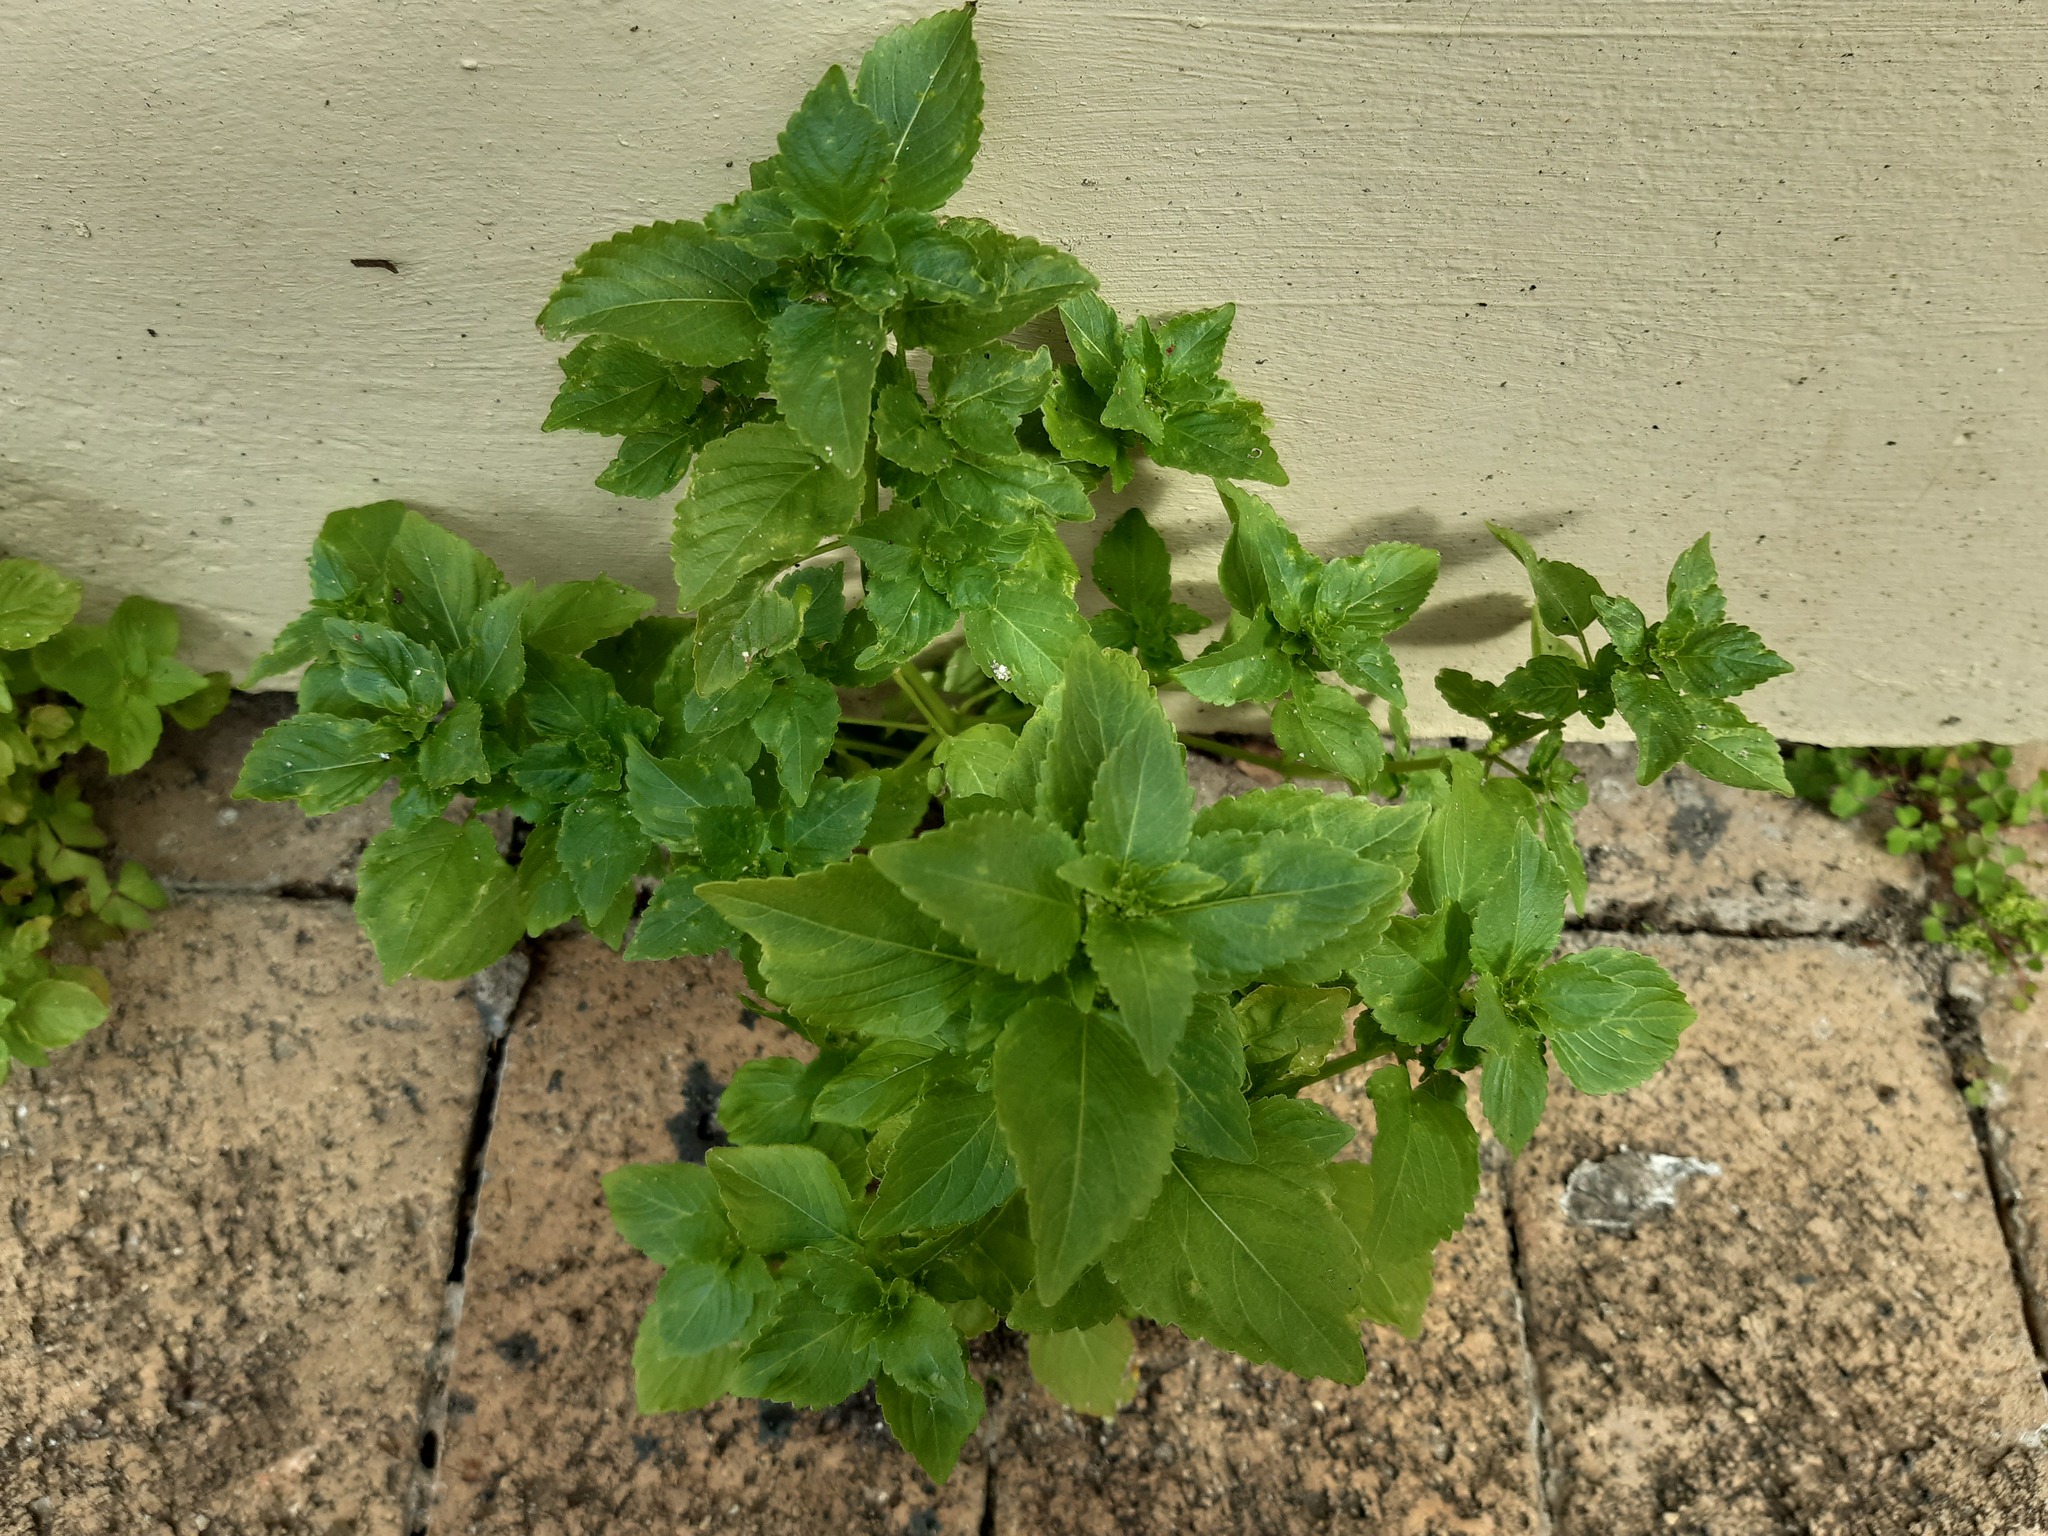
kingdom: Plantae
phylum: Tracheophyta
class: Magnoliopsida
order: Rosales
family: Urticaceae
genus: Didymodoxa
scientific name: Didymodoxa capensis
